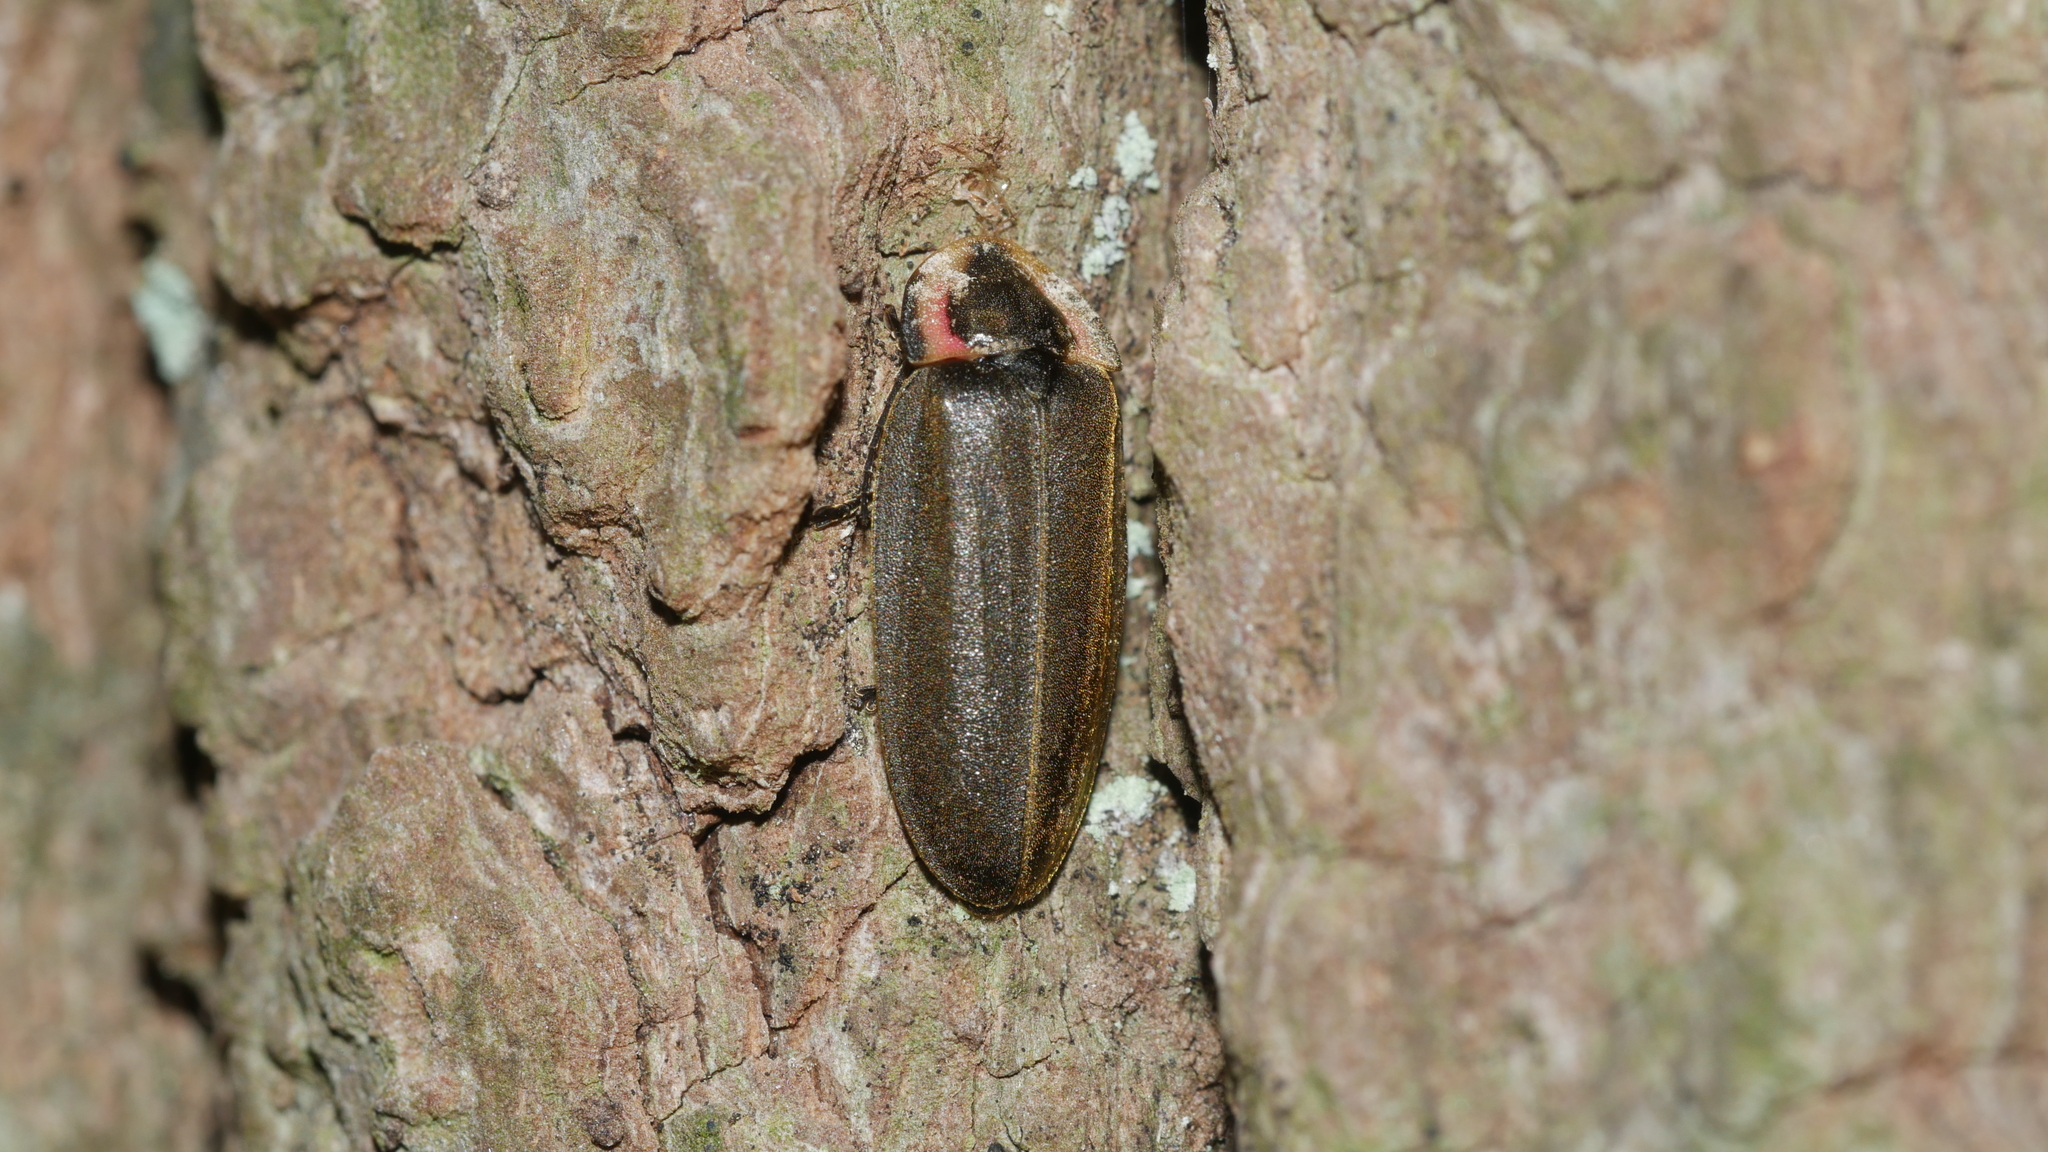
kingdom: Animalia
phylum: Arthropoda
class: Insecta
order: Coleoptera
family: Lampyridae
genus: Photinus
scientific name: Photinus corrusca
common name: Winter firefly
